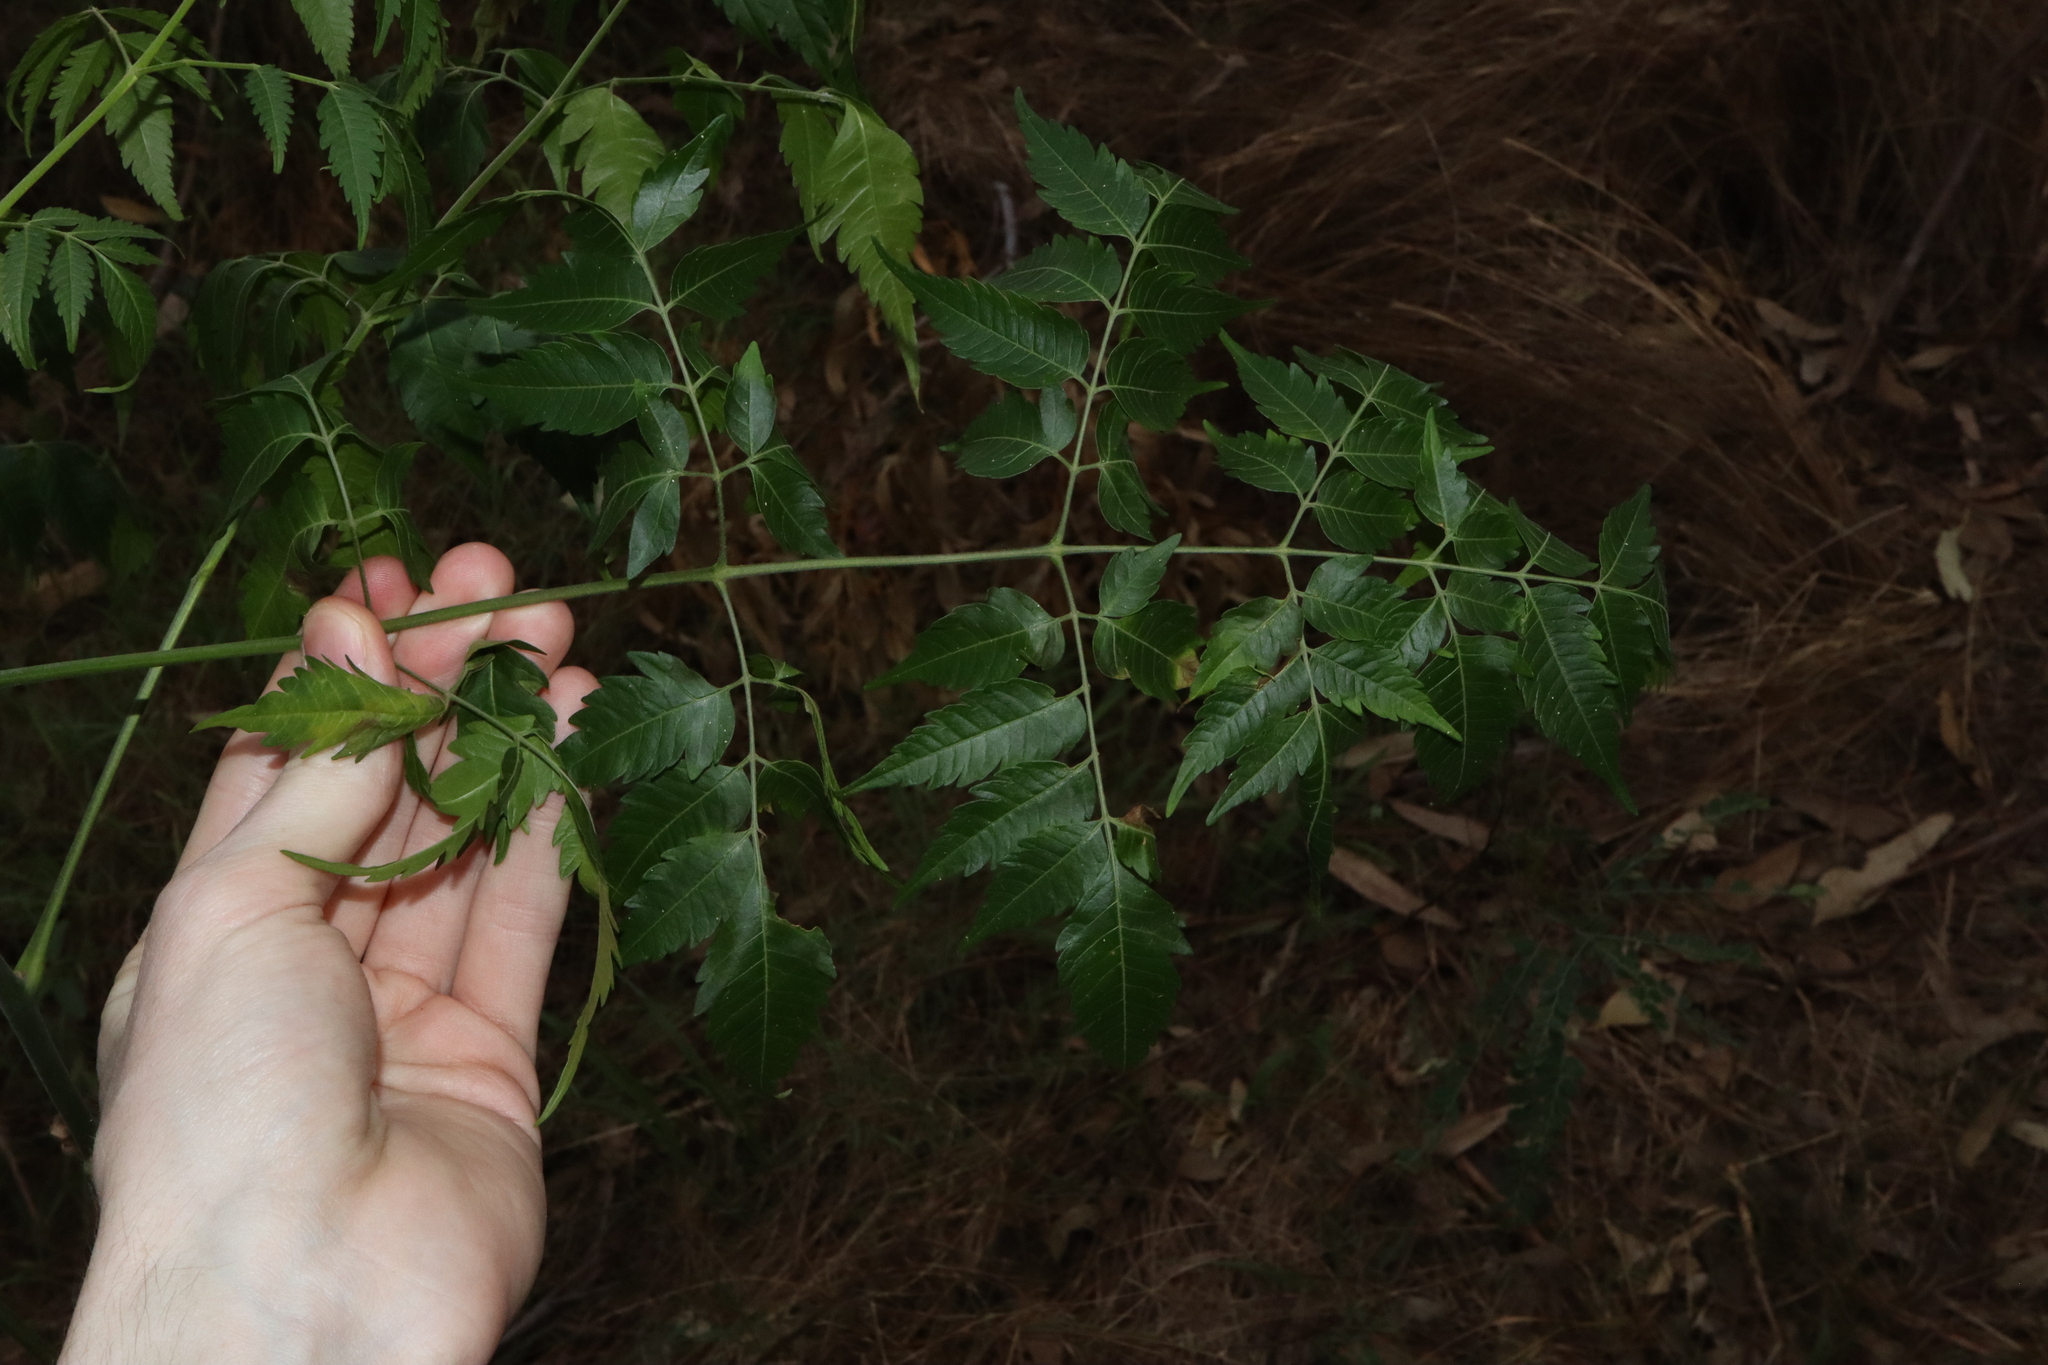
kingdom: Plantae
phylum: Tracheophyta
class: Magnoliopsida
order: Sapindales
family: Meliaceae
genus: Melia
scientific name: Melia azedarach
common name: Chinaberrytree
